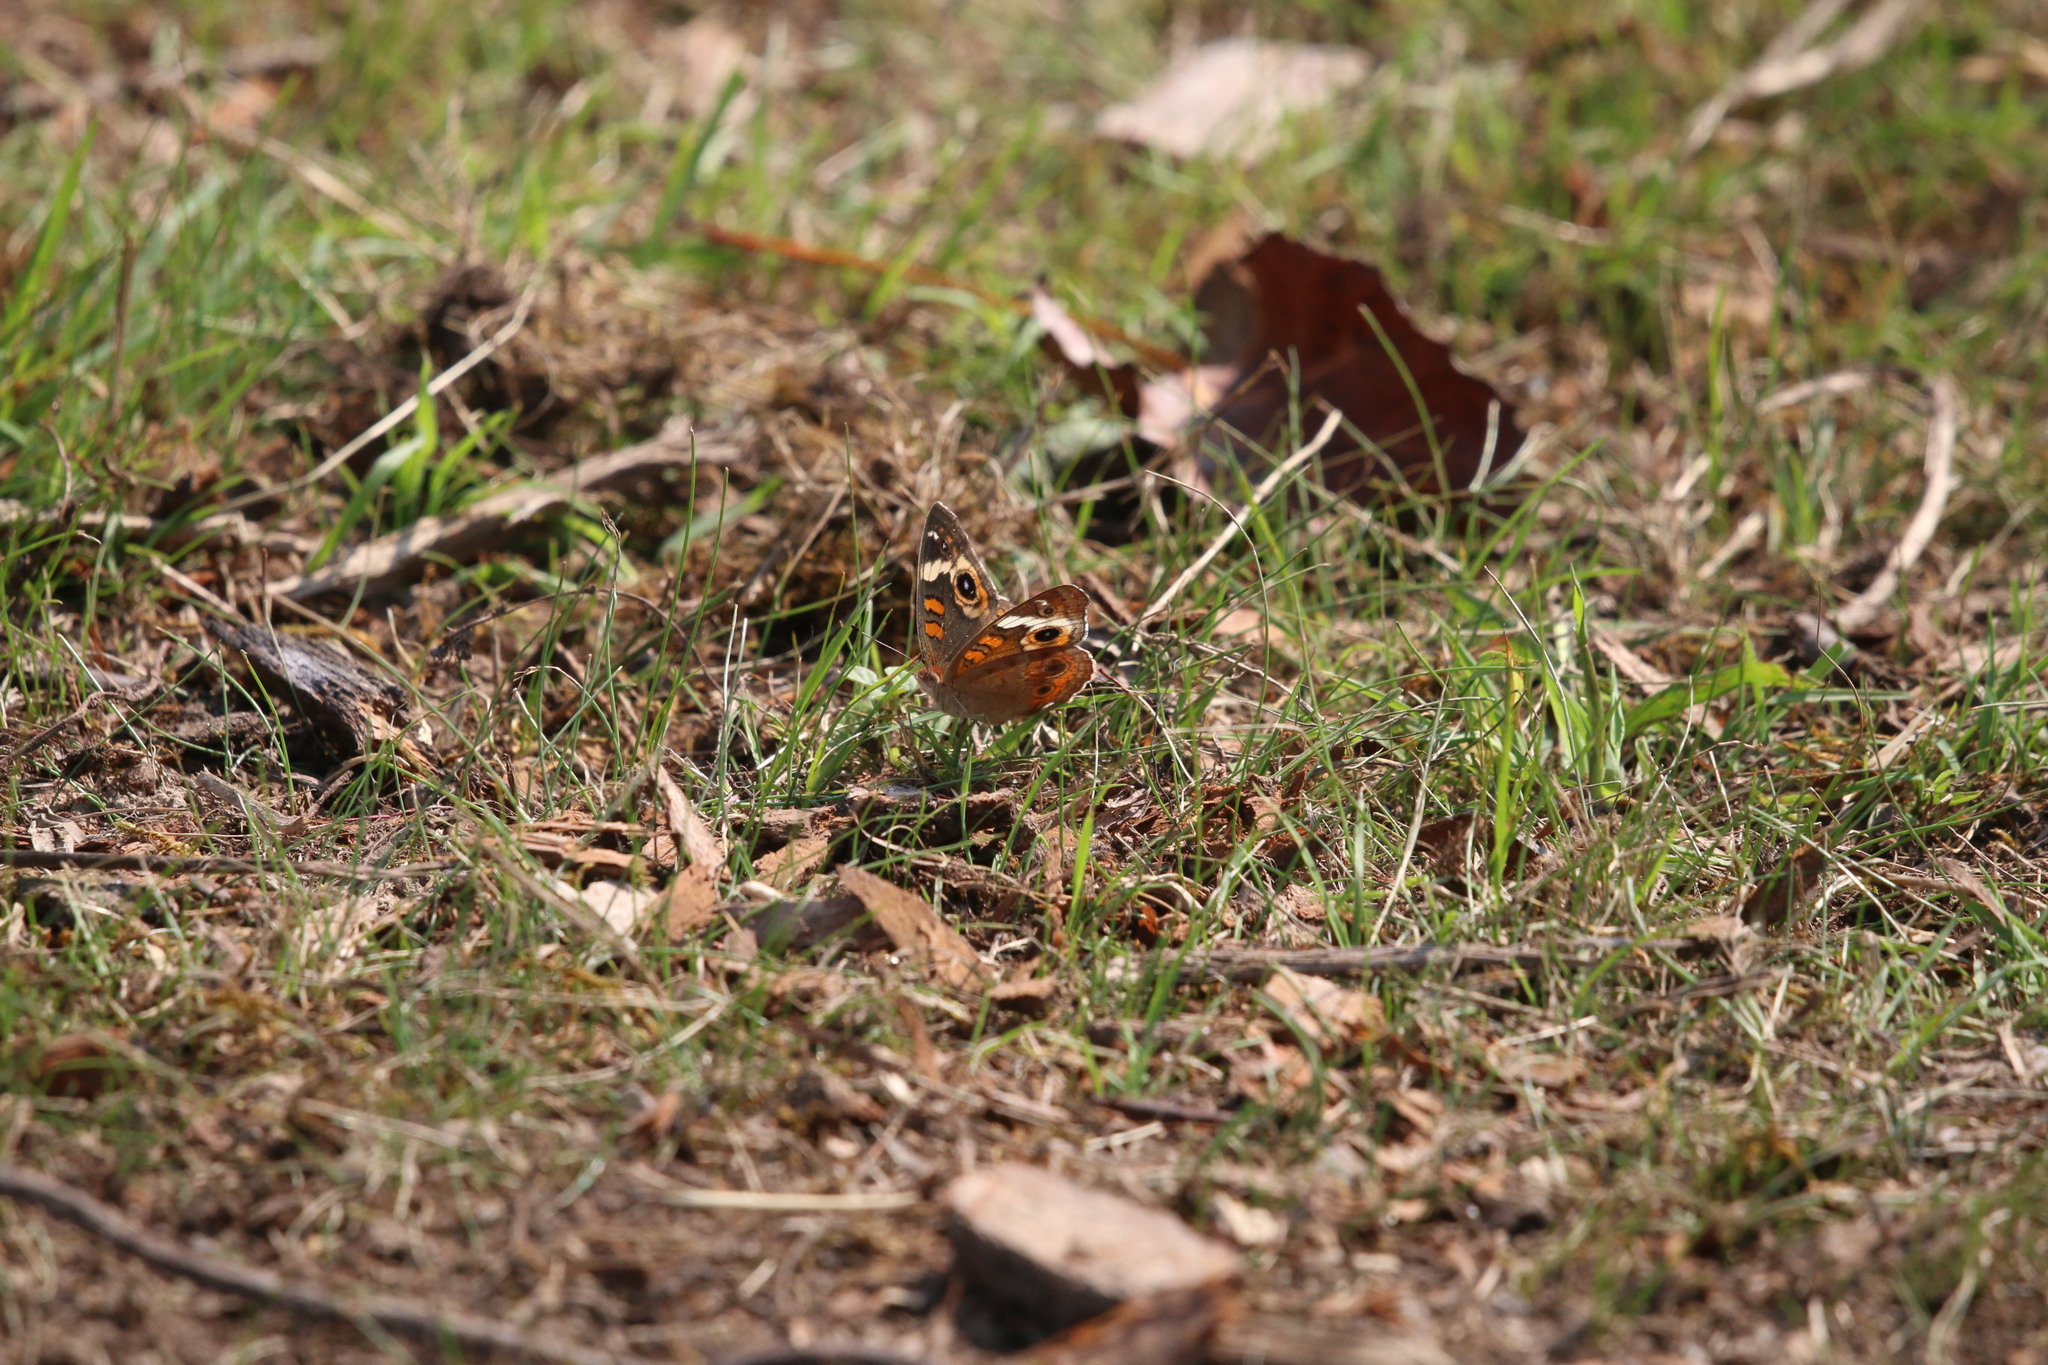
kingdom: Animalia
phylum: Arthropoda
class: Insecta
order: Lepidoptera
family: Nymphalidae
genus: Junonia
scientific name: Junonia coenia
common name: Common buckeye
